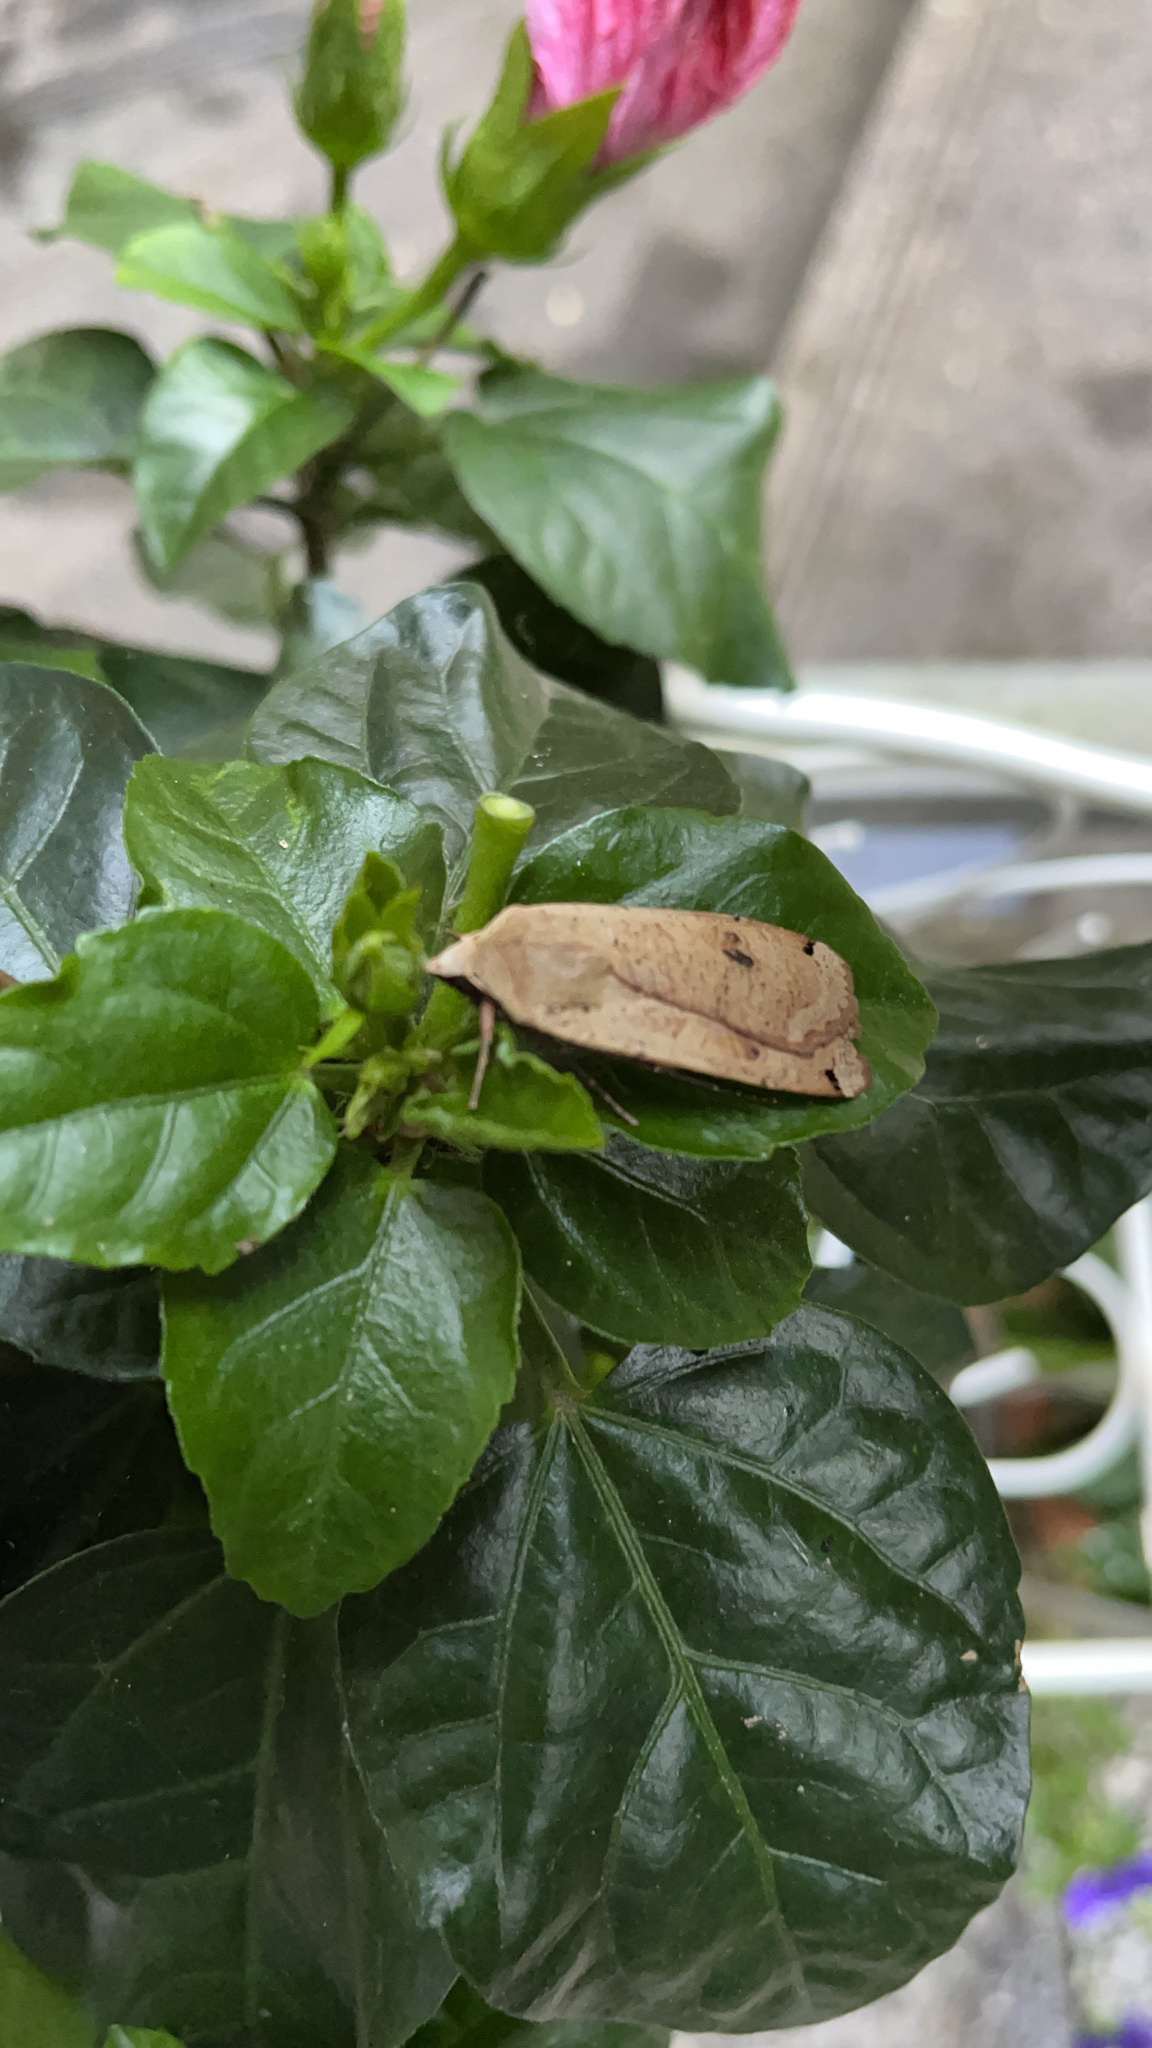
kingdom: Animalia
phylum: Arthropoda
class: Insecta
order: Lepidoptera
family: Noctuidae
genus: Noctua
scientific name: Noctua pronuba
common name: Large yellow underwing
